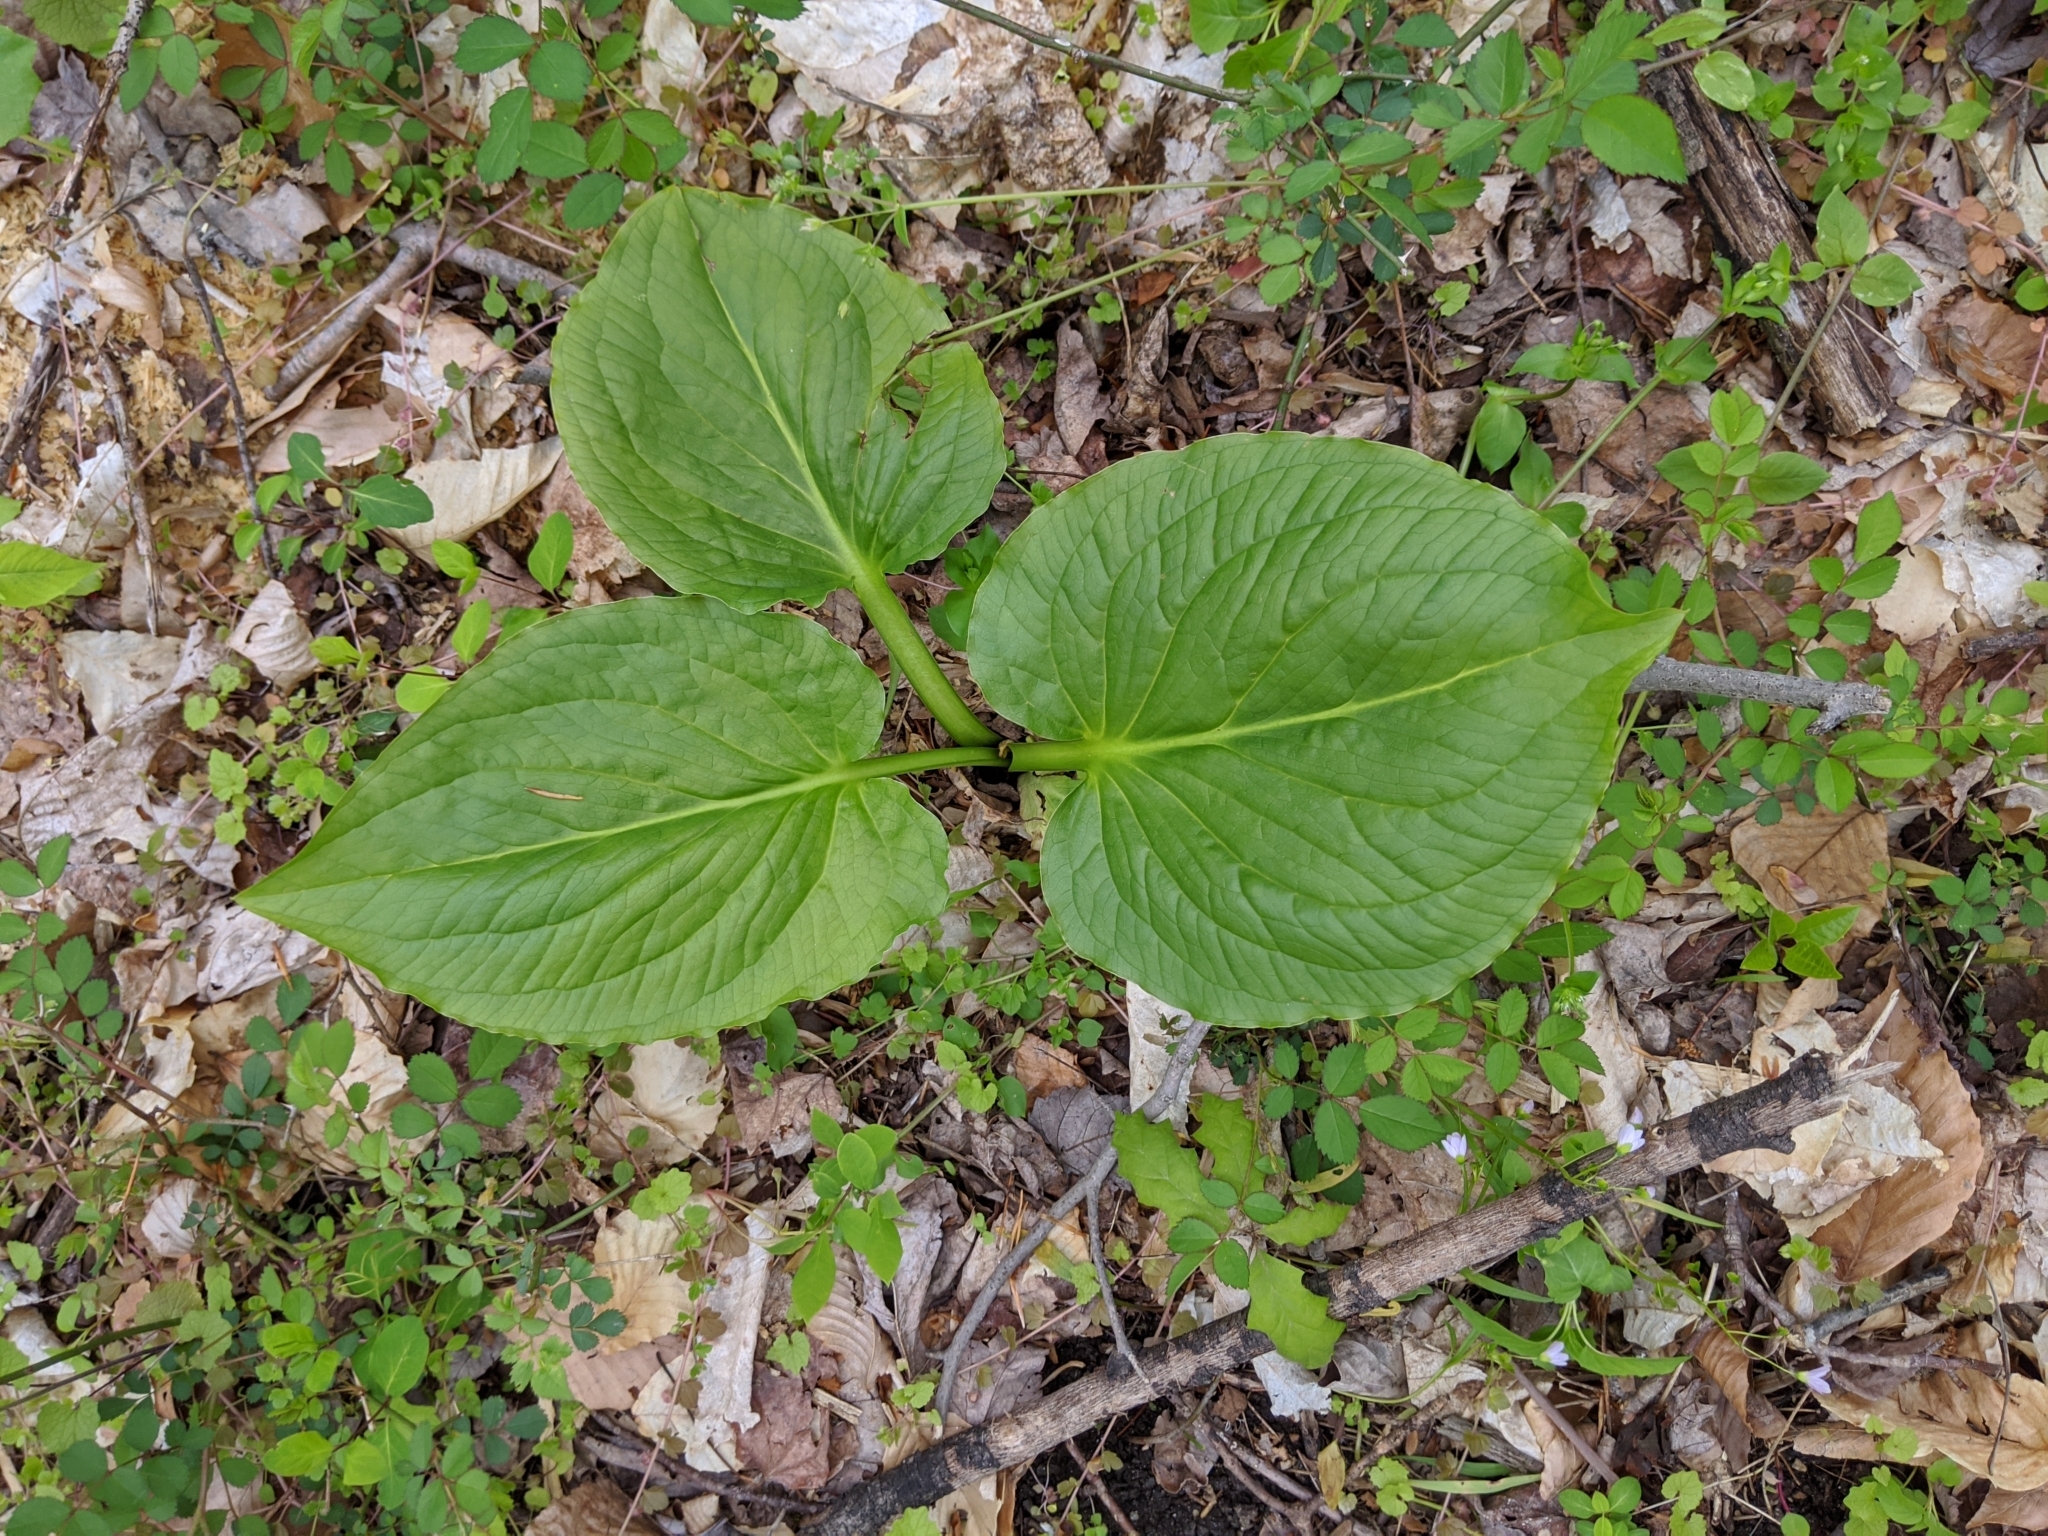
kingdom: Plantae
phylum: Tracheophyta
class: Liliopsida
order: Alismatales
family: Araceae
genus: Symplocarpus
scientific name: Symplocarpus foetidus
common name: Eastern skunk cabbage
